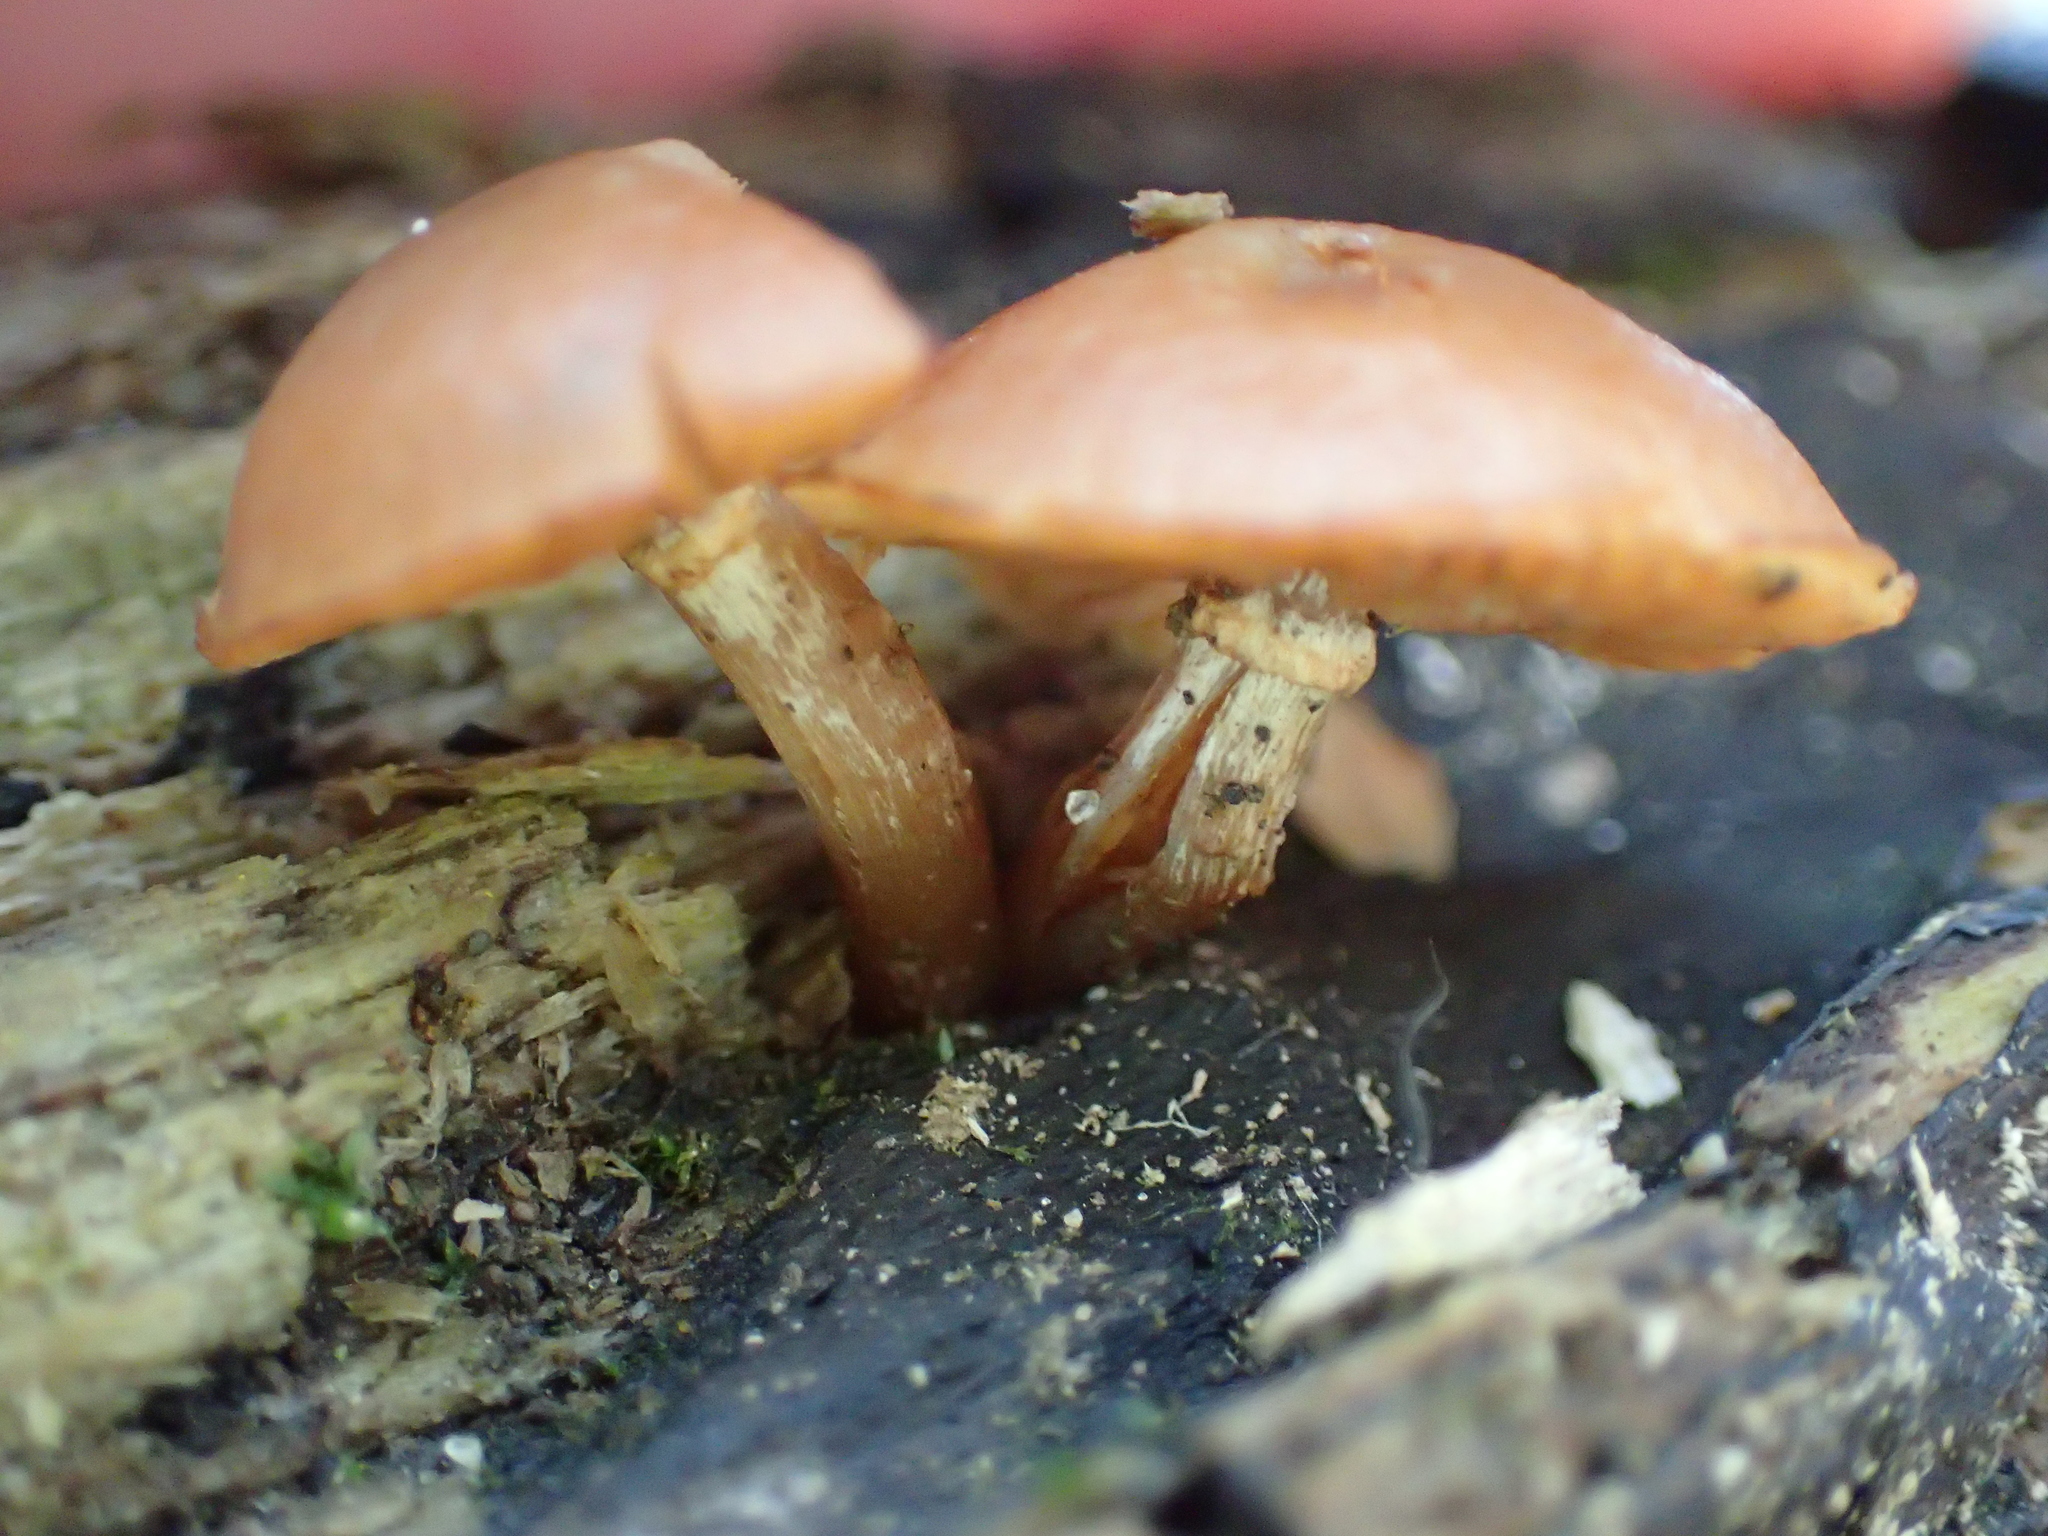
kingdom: Fungi
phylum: Basidiomycota
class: Agaricomycetes
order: Agaricales
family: Hymenogastraceae
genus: Galerina
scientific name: Galerina marginata
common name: Funeral bell
